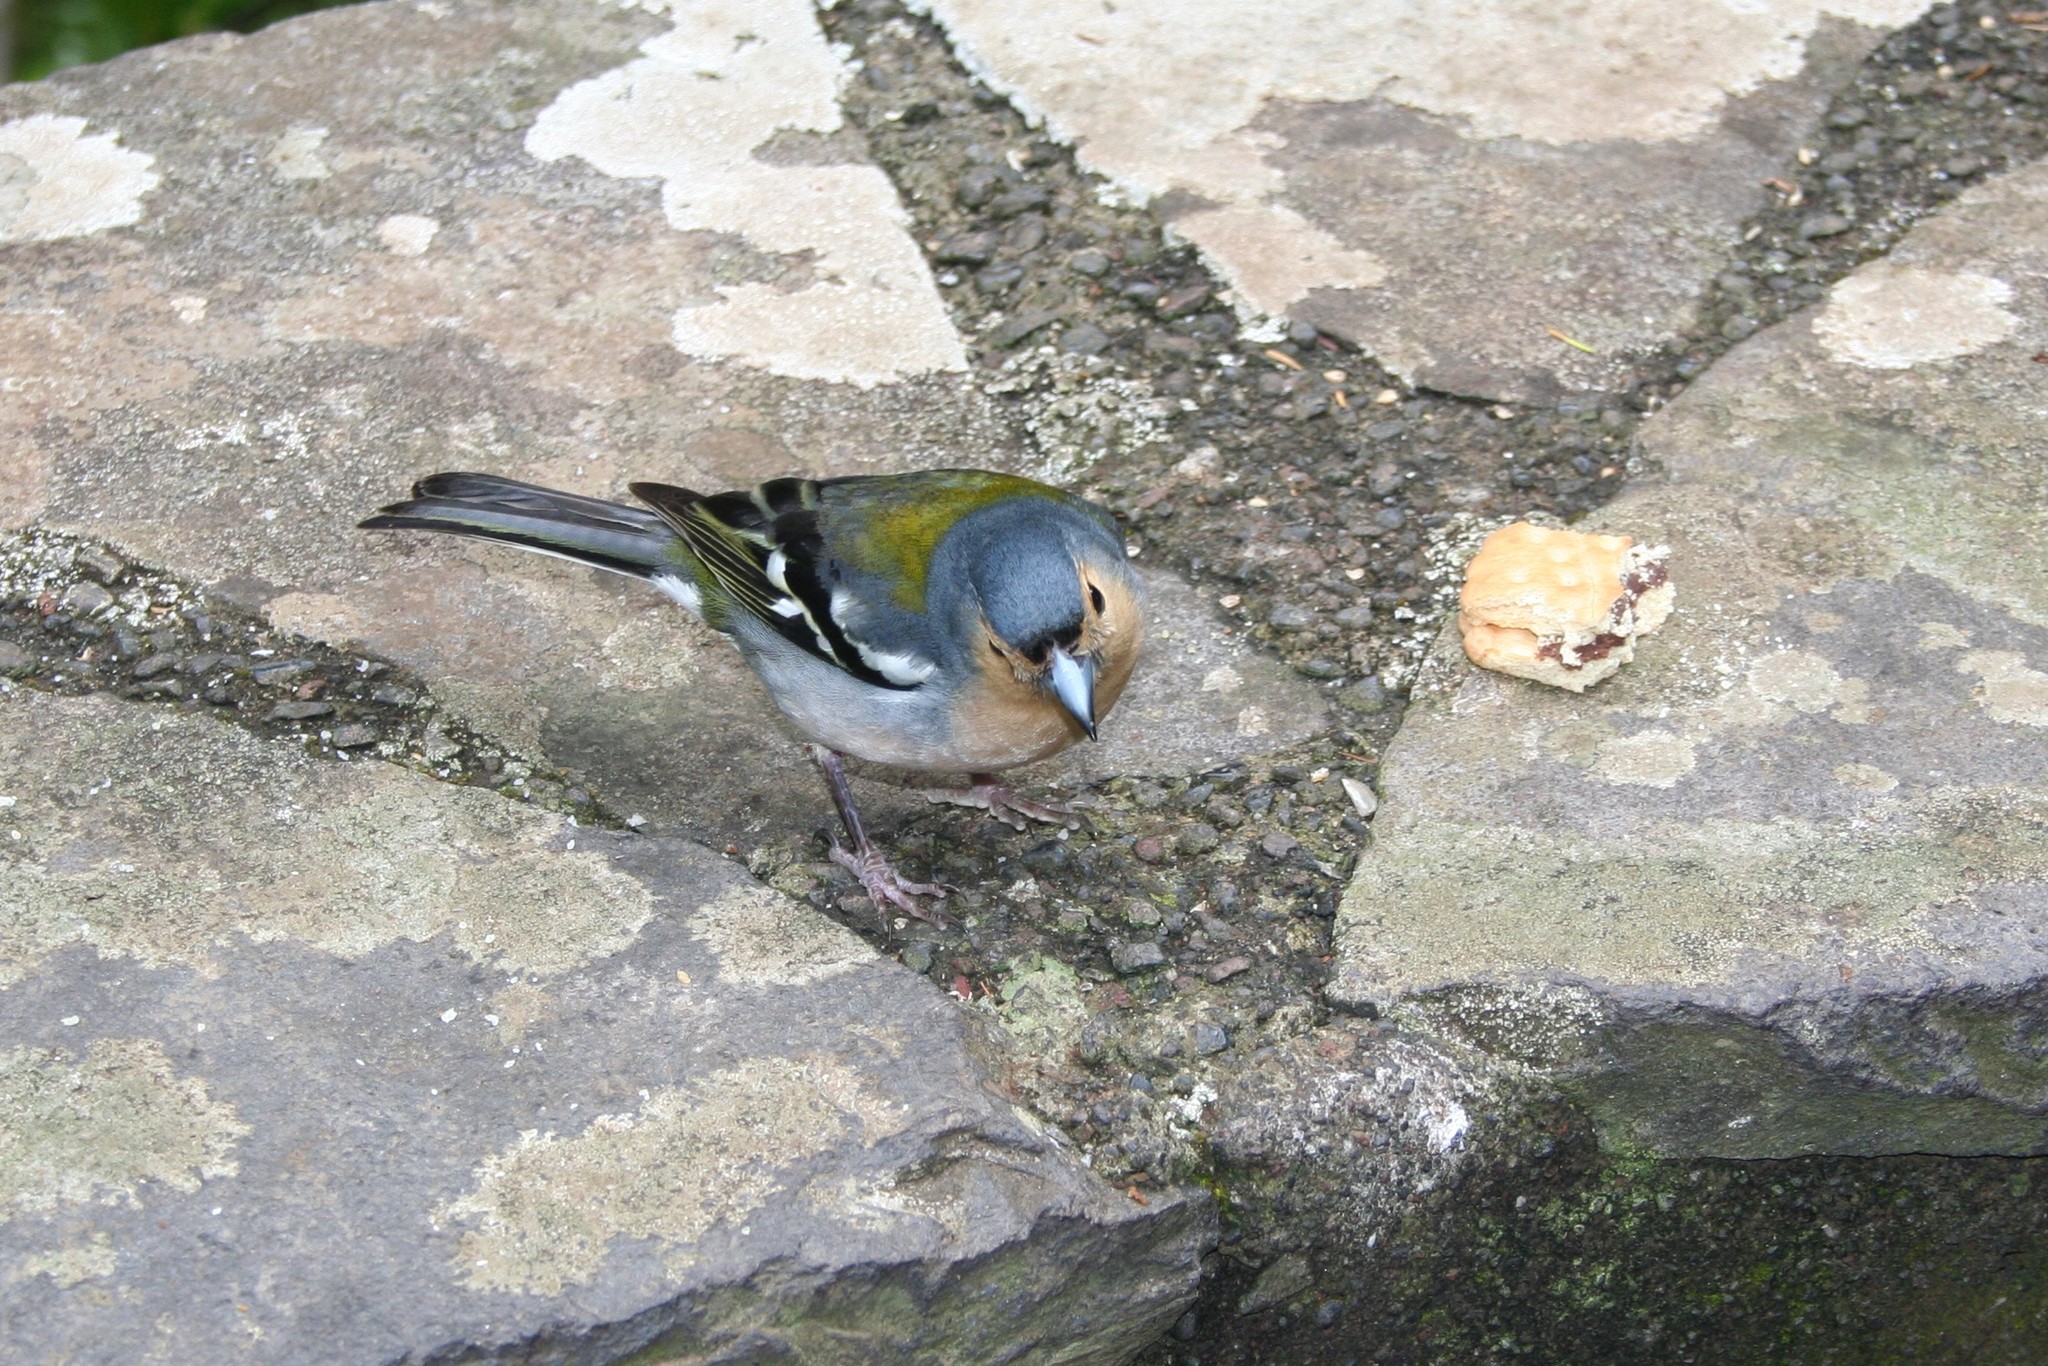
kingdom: Animalia
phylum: Chordata
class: Aves
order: Passeriformes
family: Fringillidae
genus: Fringilla
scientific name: Fringilla maderensis
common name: Madeira chaffinch
